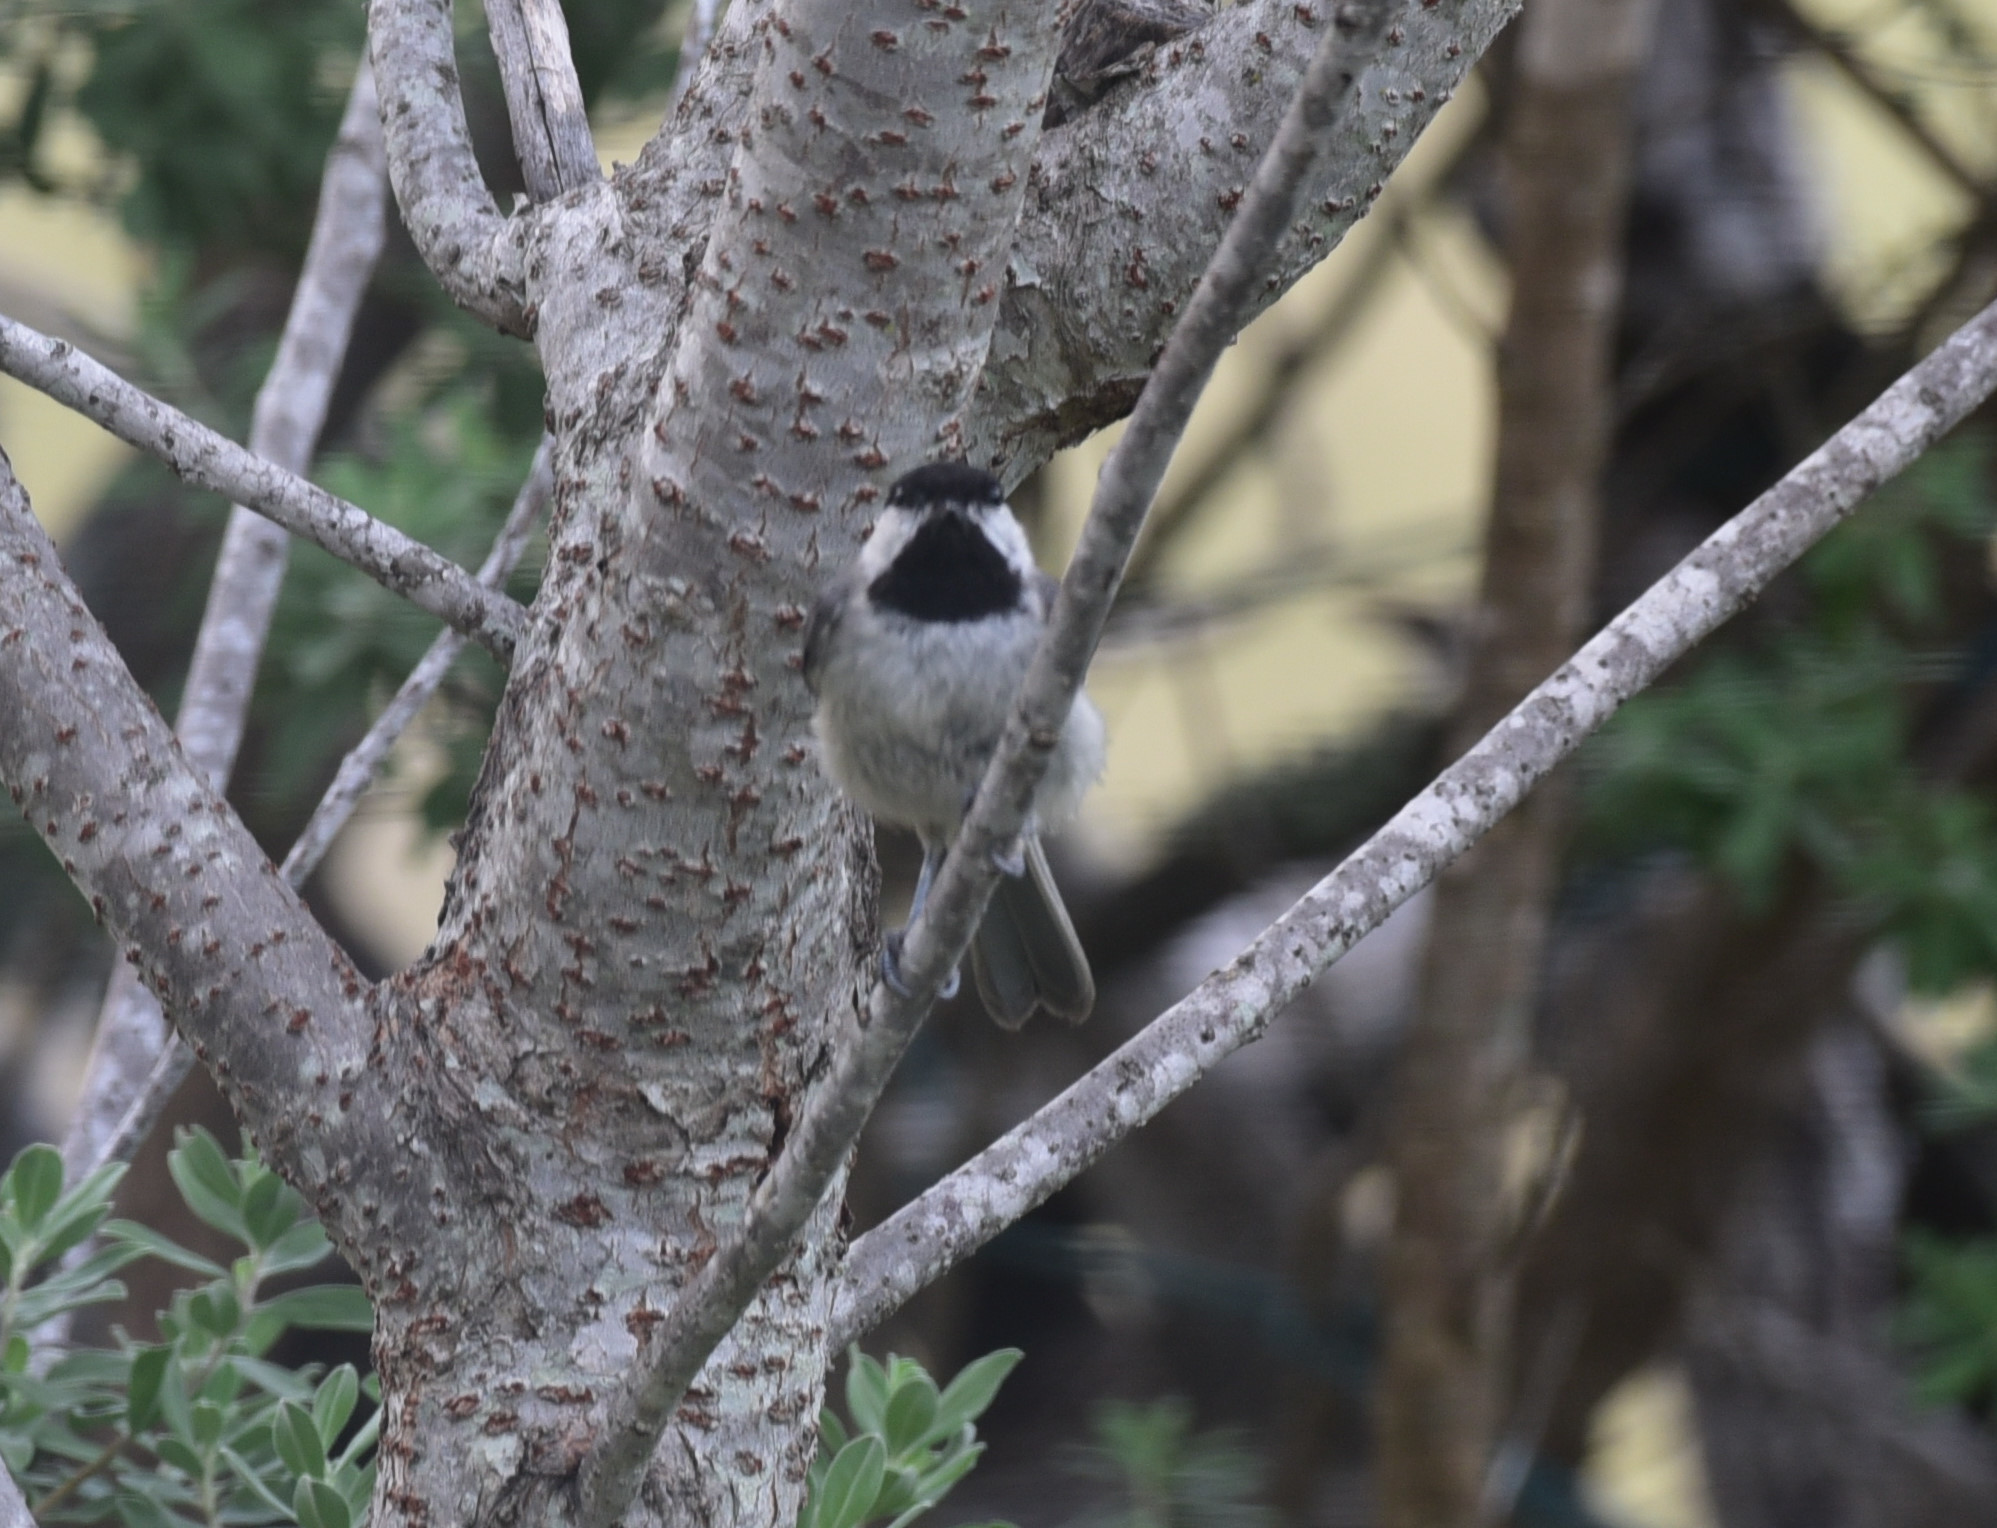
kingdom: Animalia
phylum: Chordata
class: Aves
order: Passeriformes
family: Paridae
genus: Poecile
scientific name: Poecile carolinensis
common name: Carolina chickadee
